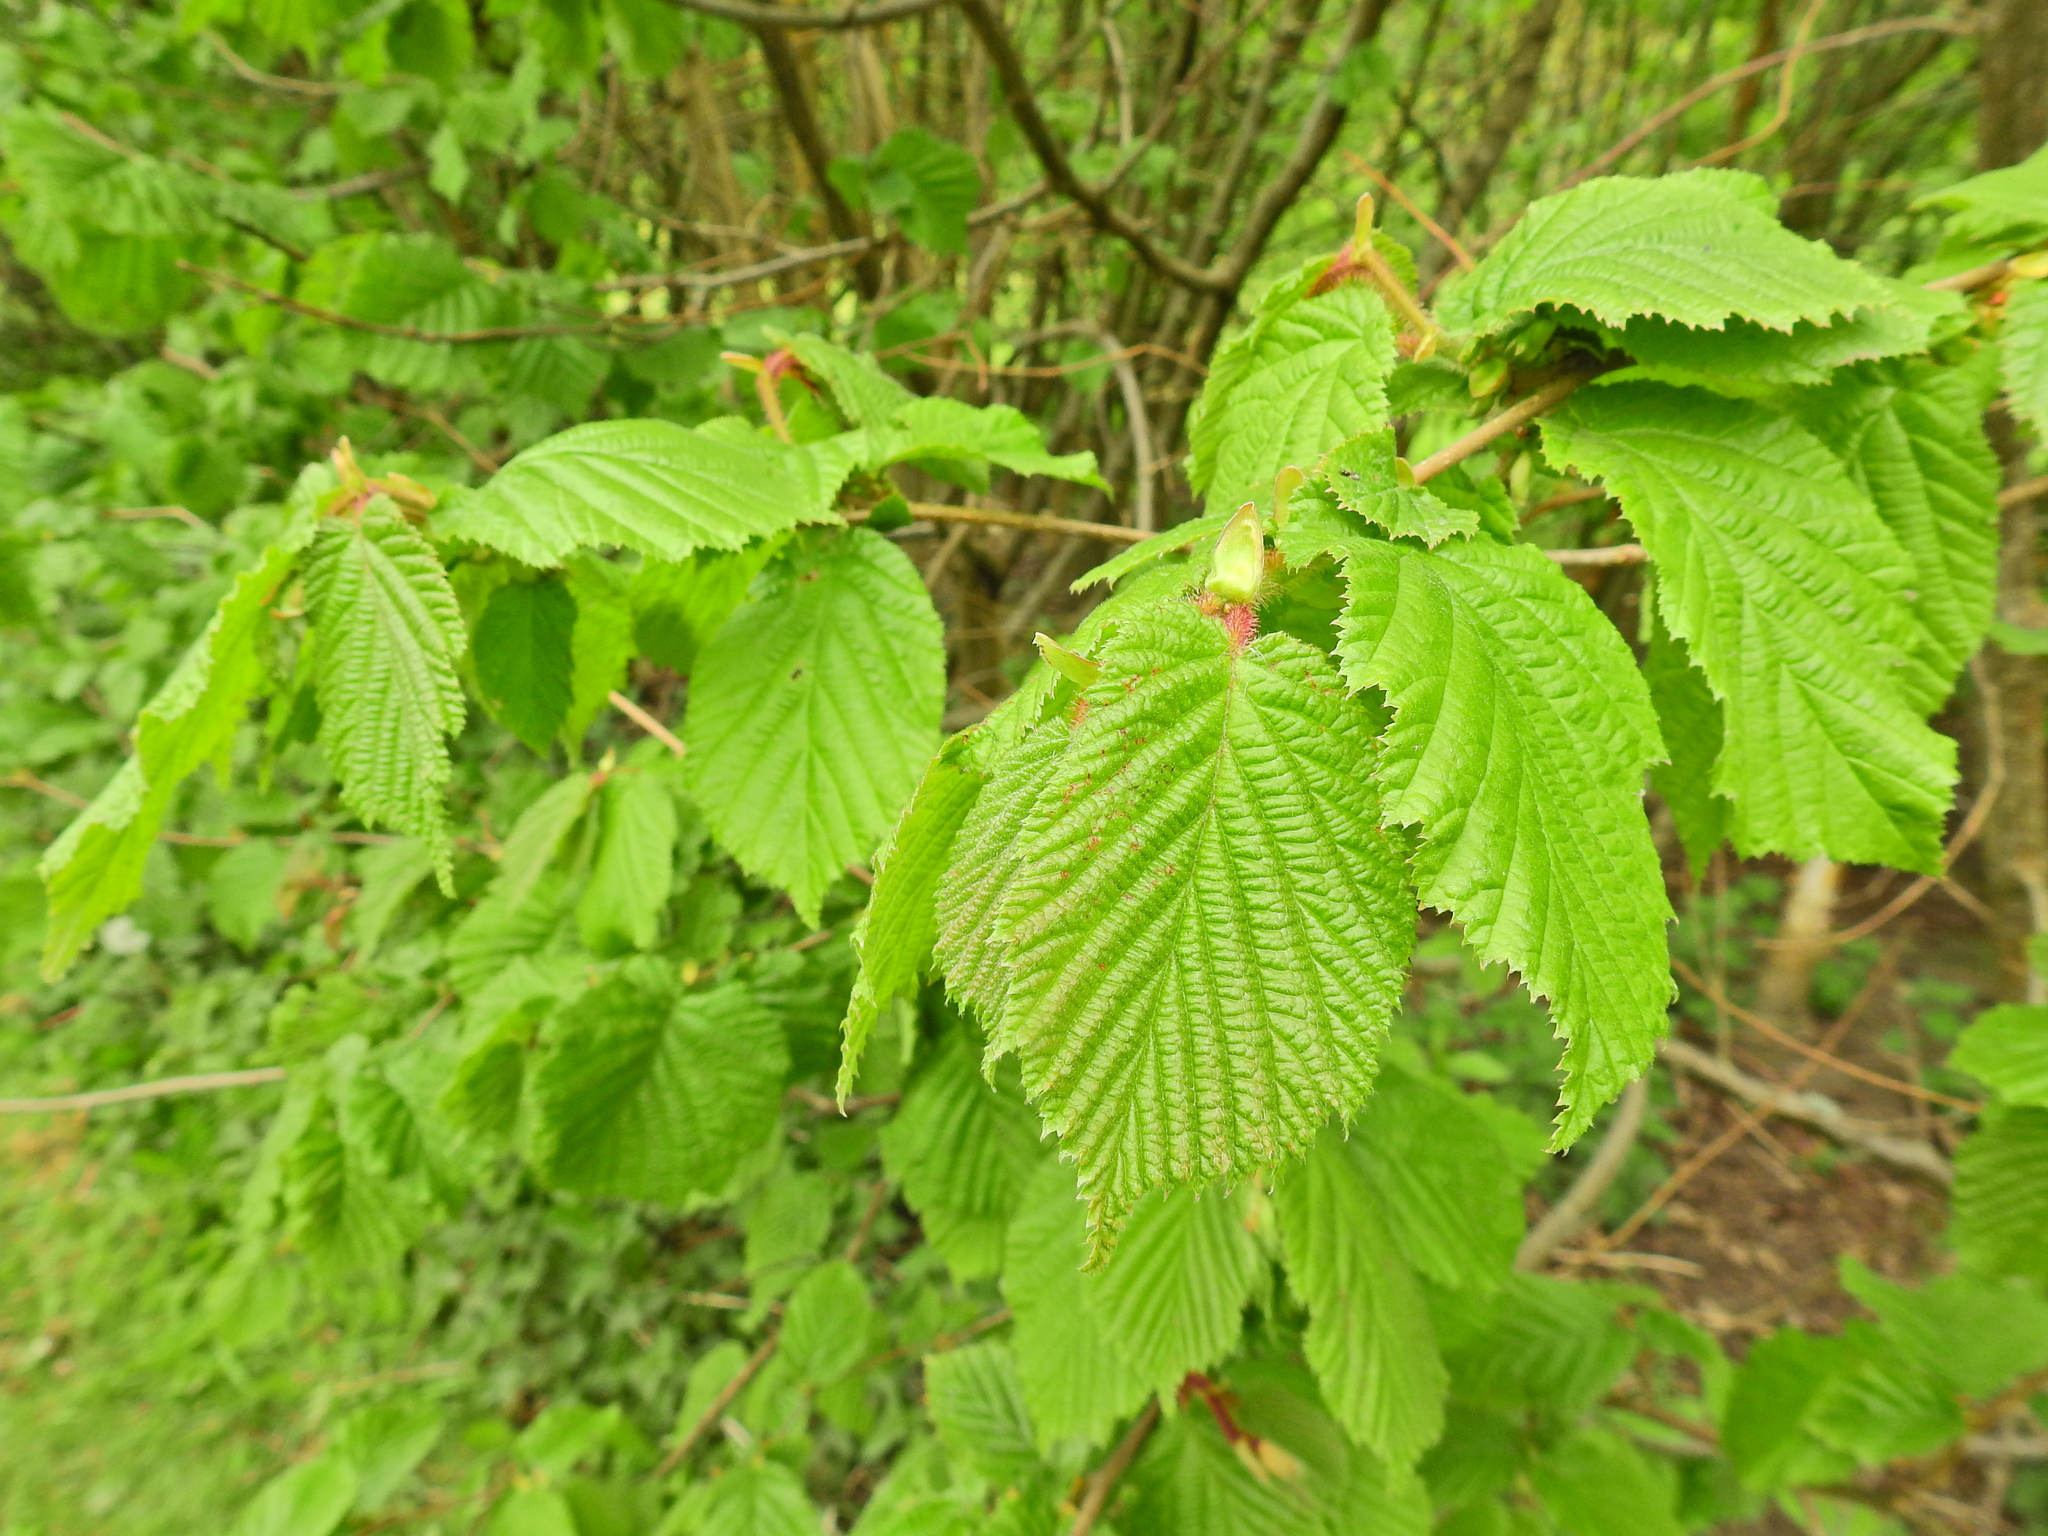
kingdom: Plantae
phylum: Tracheophyta
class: Magnoliopsida
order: Fagales
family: Betulaceae
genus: Corylus
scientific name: Corylus avellana
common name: European hazel
